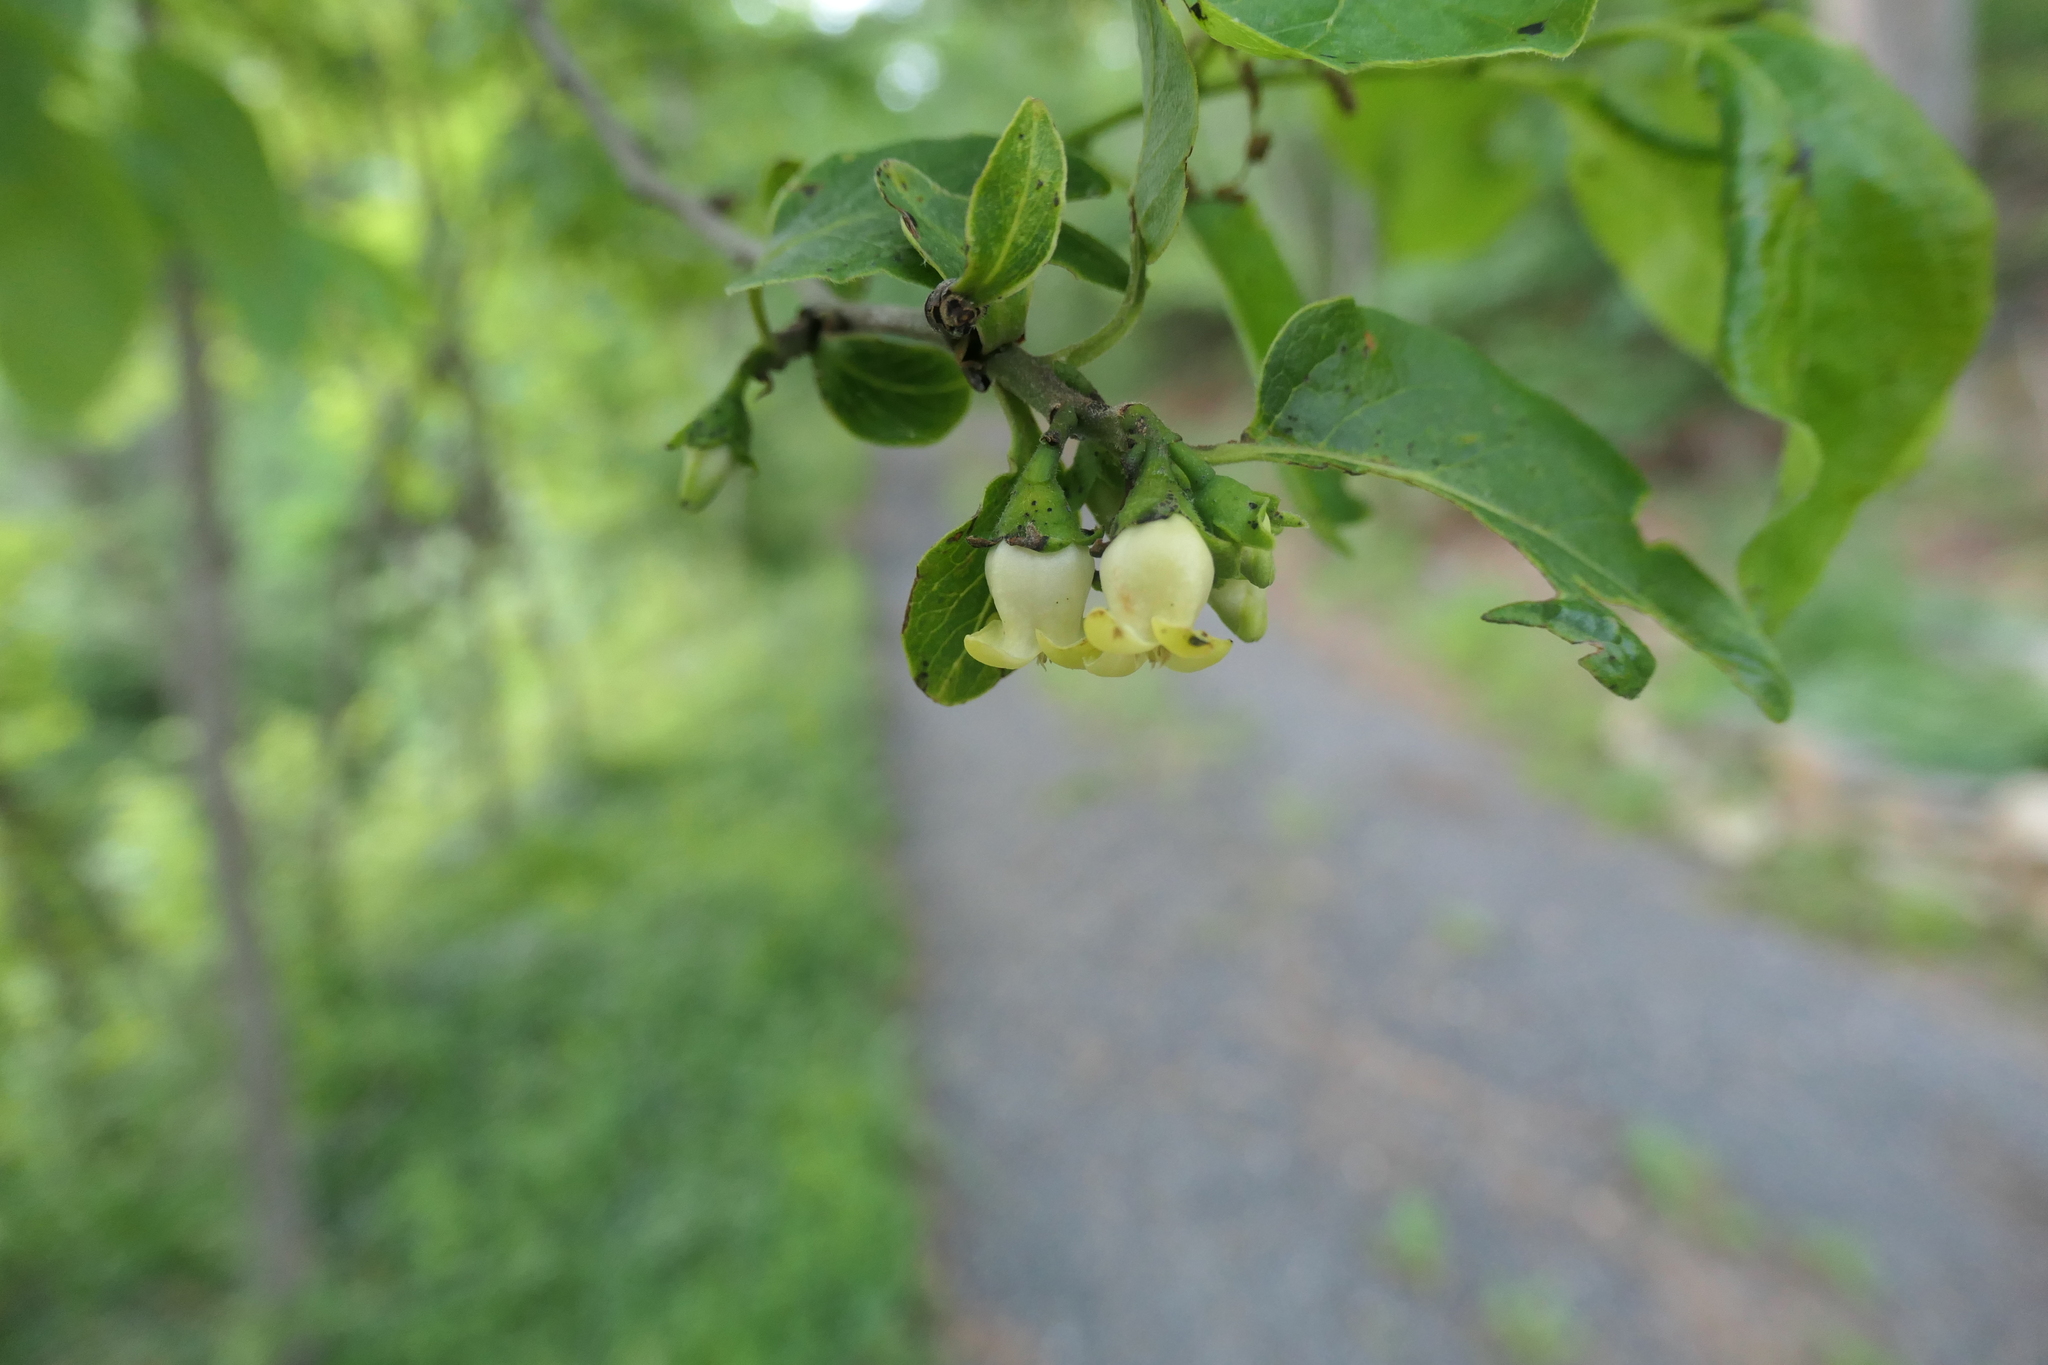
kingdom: Plantae
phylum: Tracheophyta
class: Magnoliopsida
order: Ericales
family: Ebenaceae
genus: Diospyros
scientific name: Diospyros virginiana
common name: Persimmon
